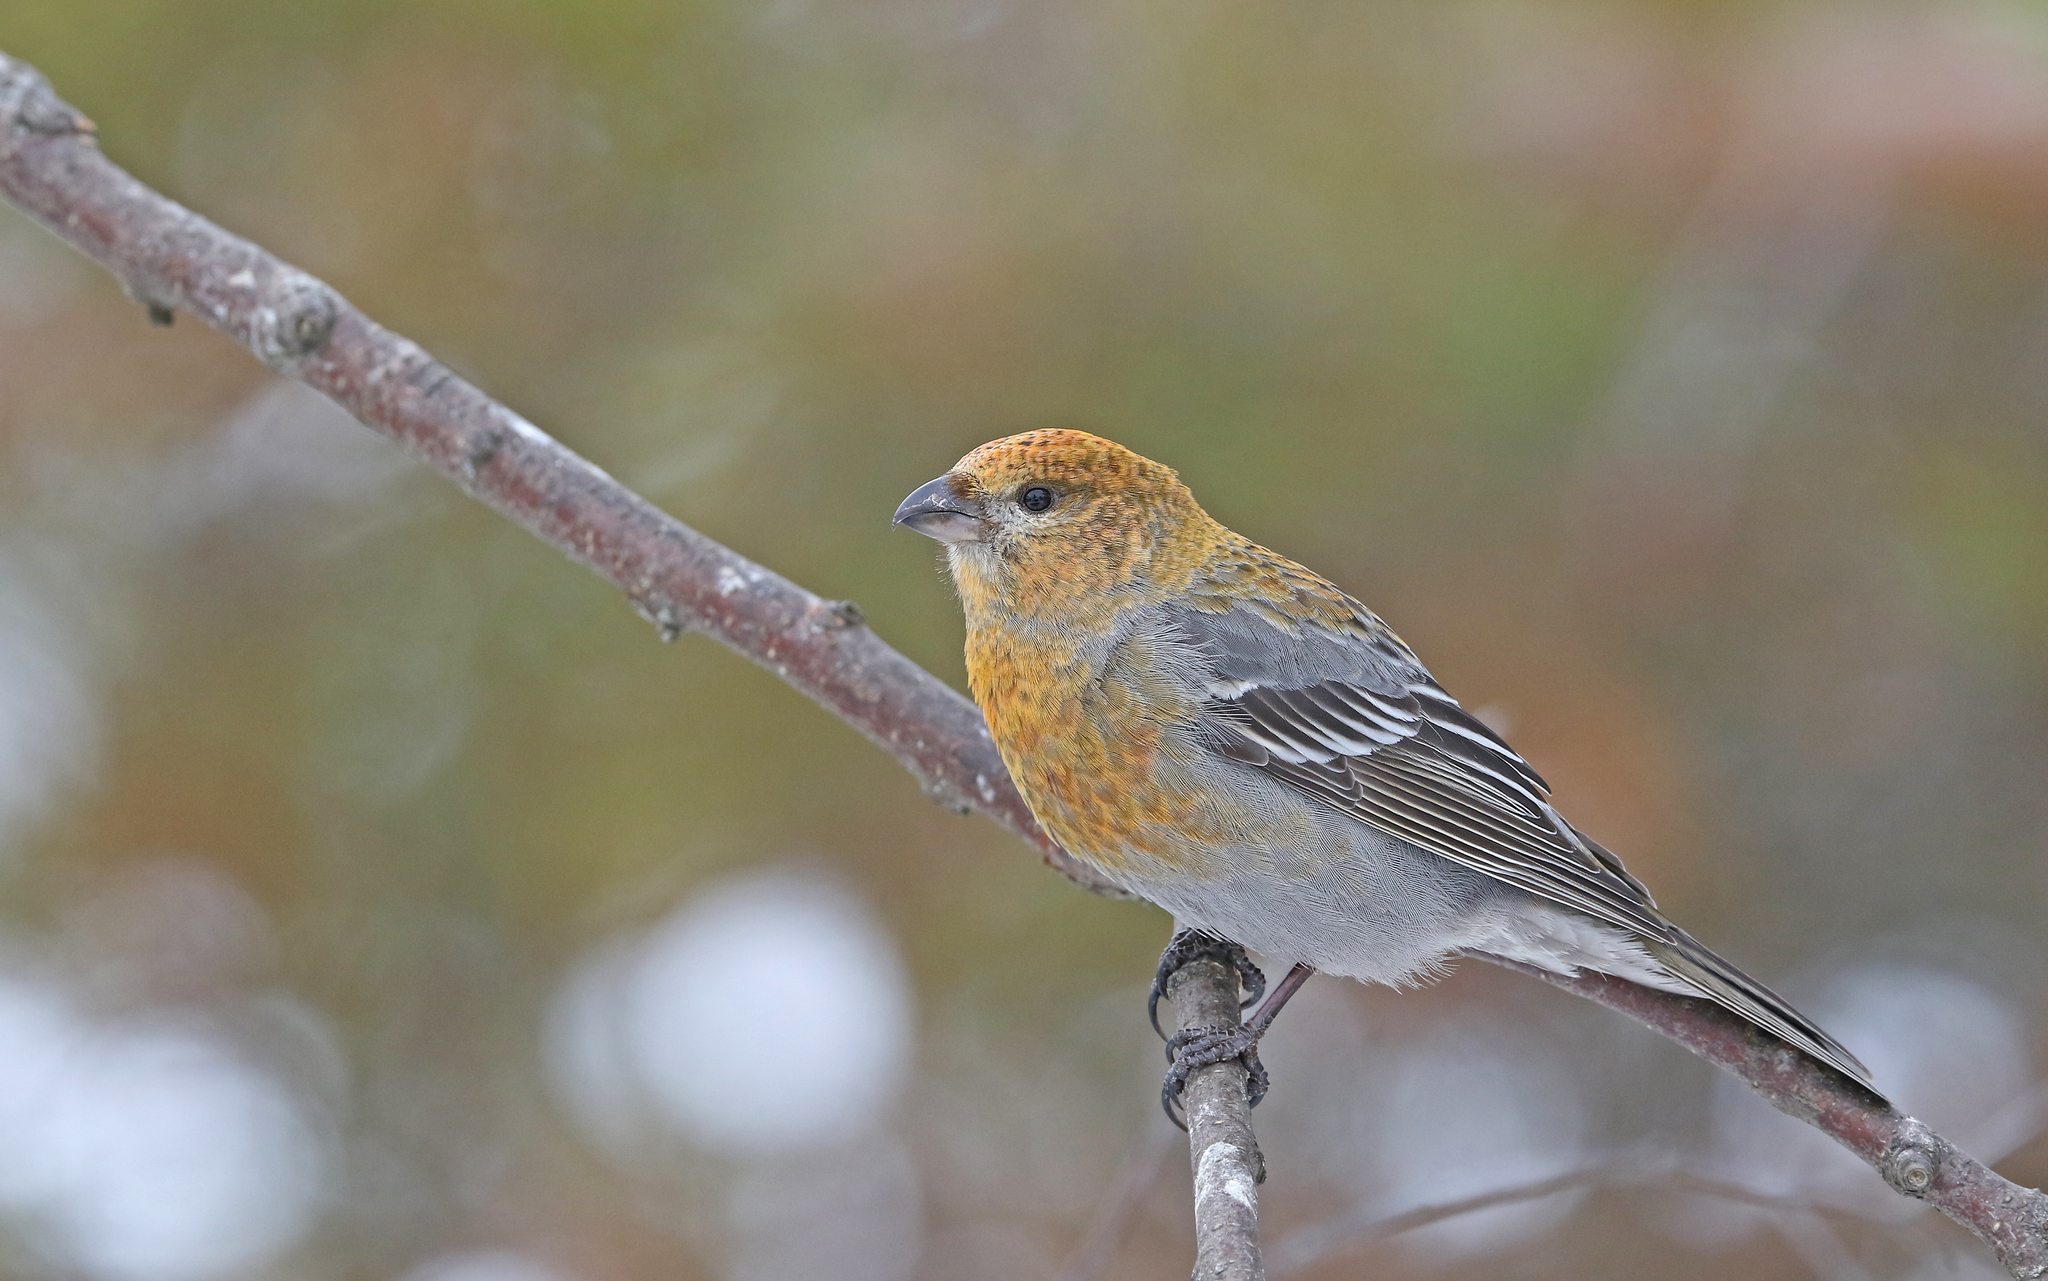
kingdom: Animalia
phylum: Chordata
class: Aves
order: Passeriformes
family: Fringillidae
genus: Pinicola
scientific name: Pinicola enucleator
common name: Pine grosbeak
